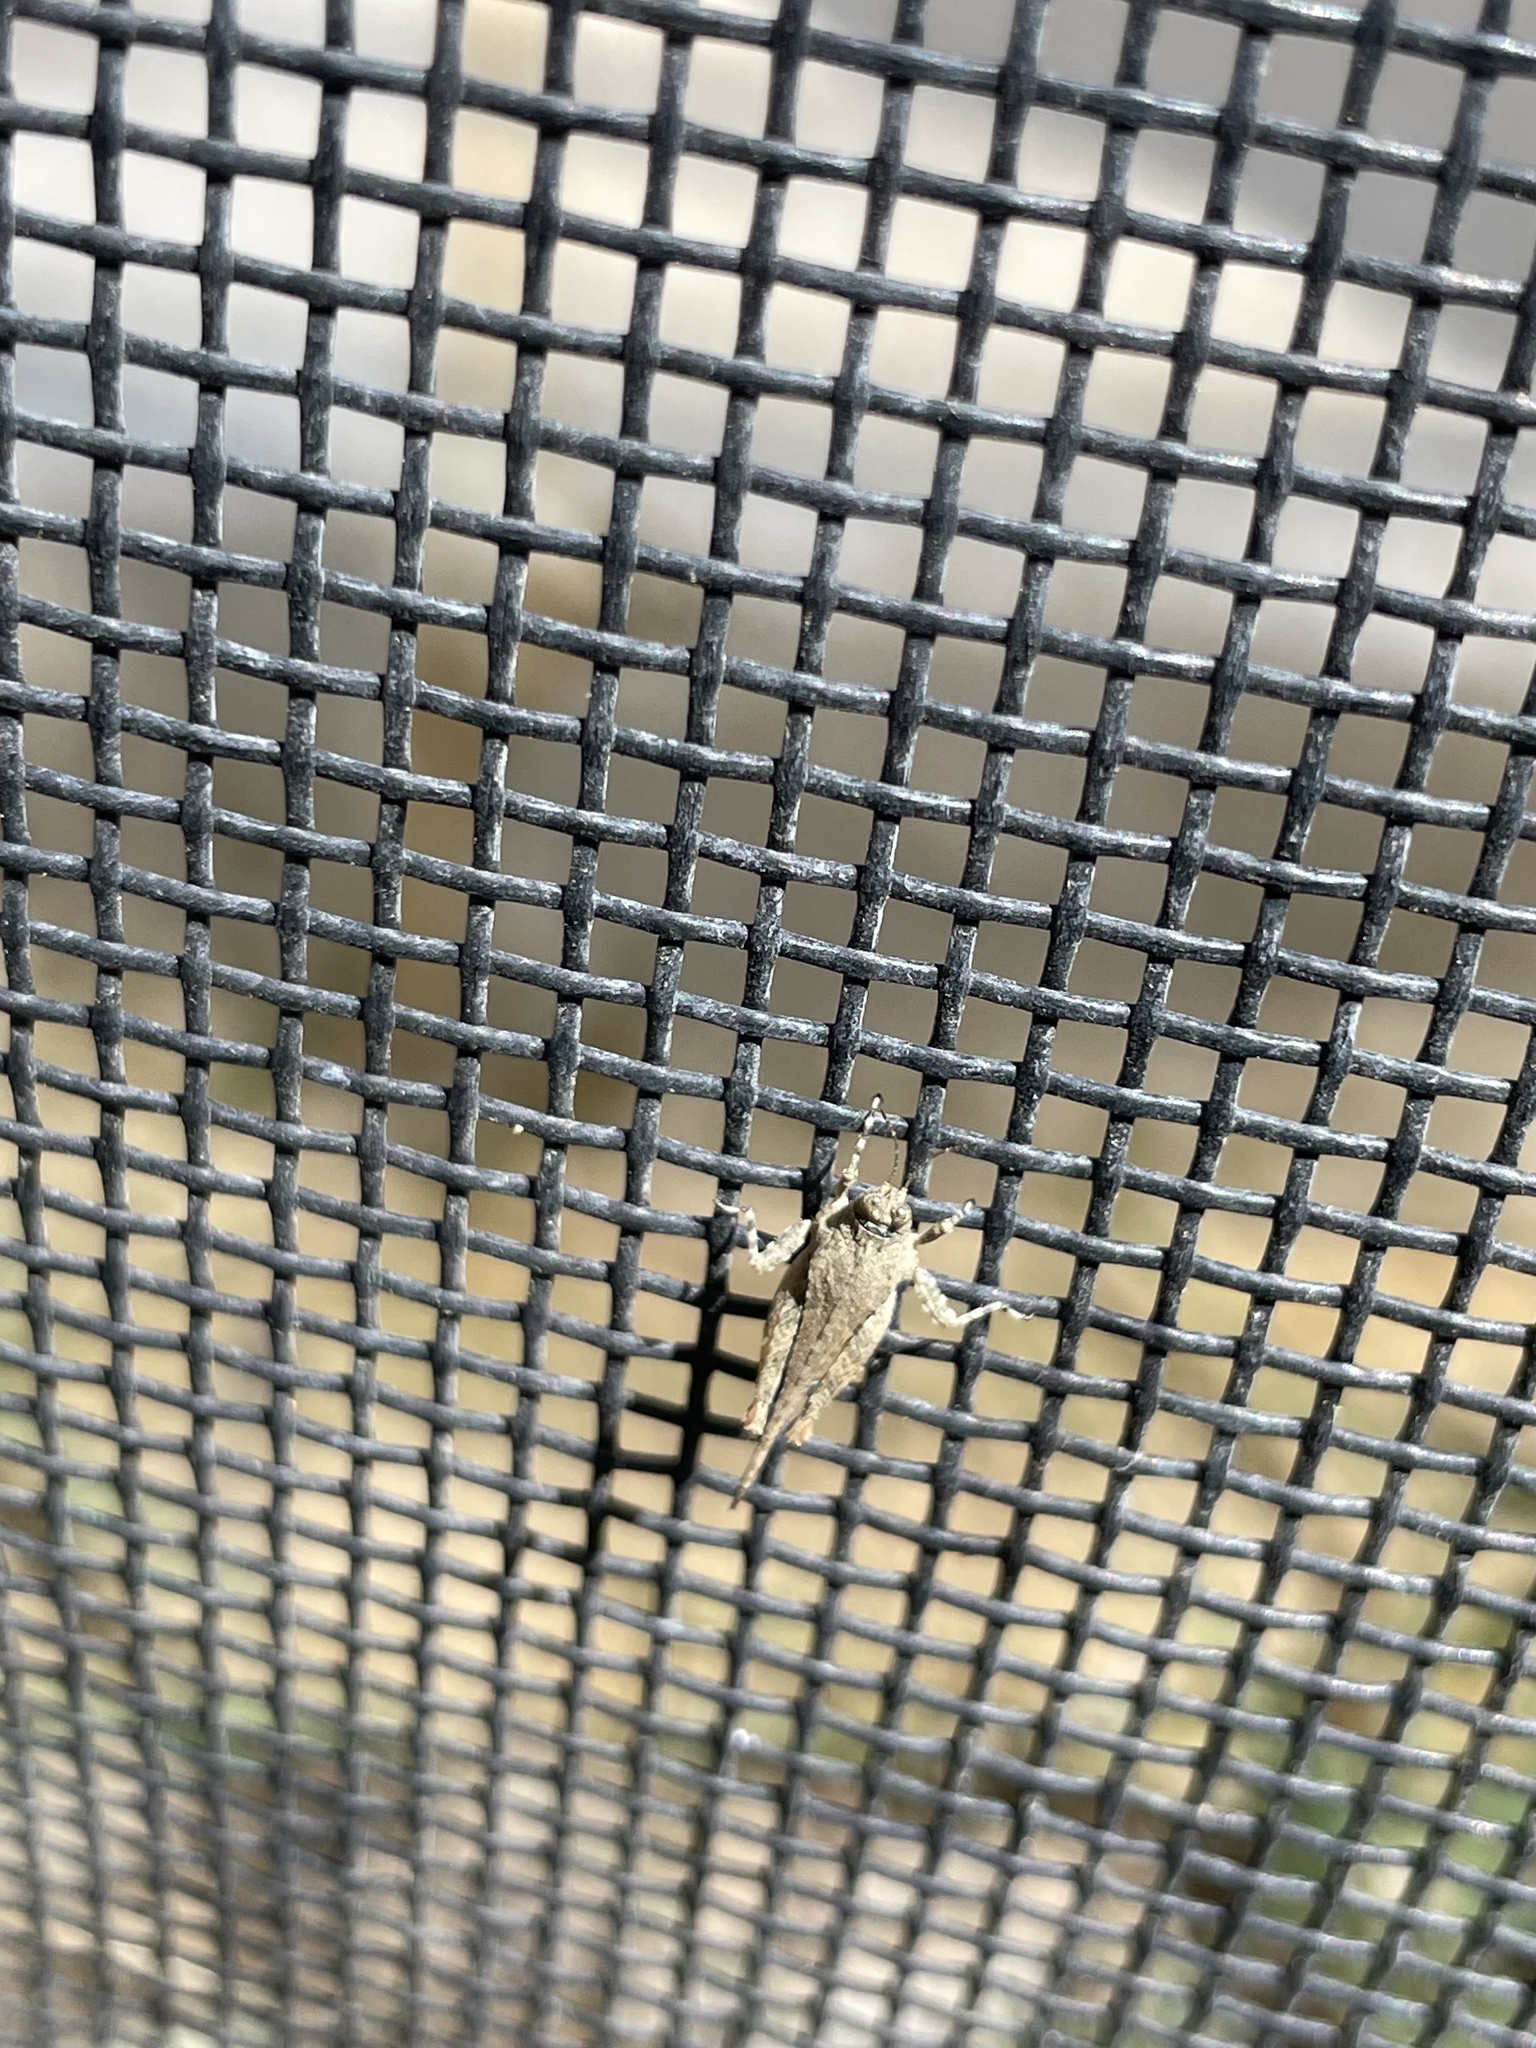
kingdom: Animalia
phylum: Arthropoda
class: Insecta
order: Orthoptera
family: Tetrigidae
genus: Paratettix
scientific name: Paratettix meridionalis
